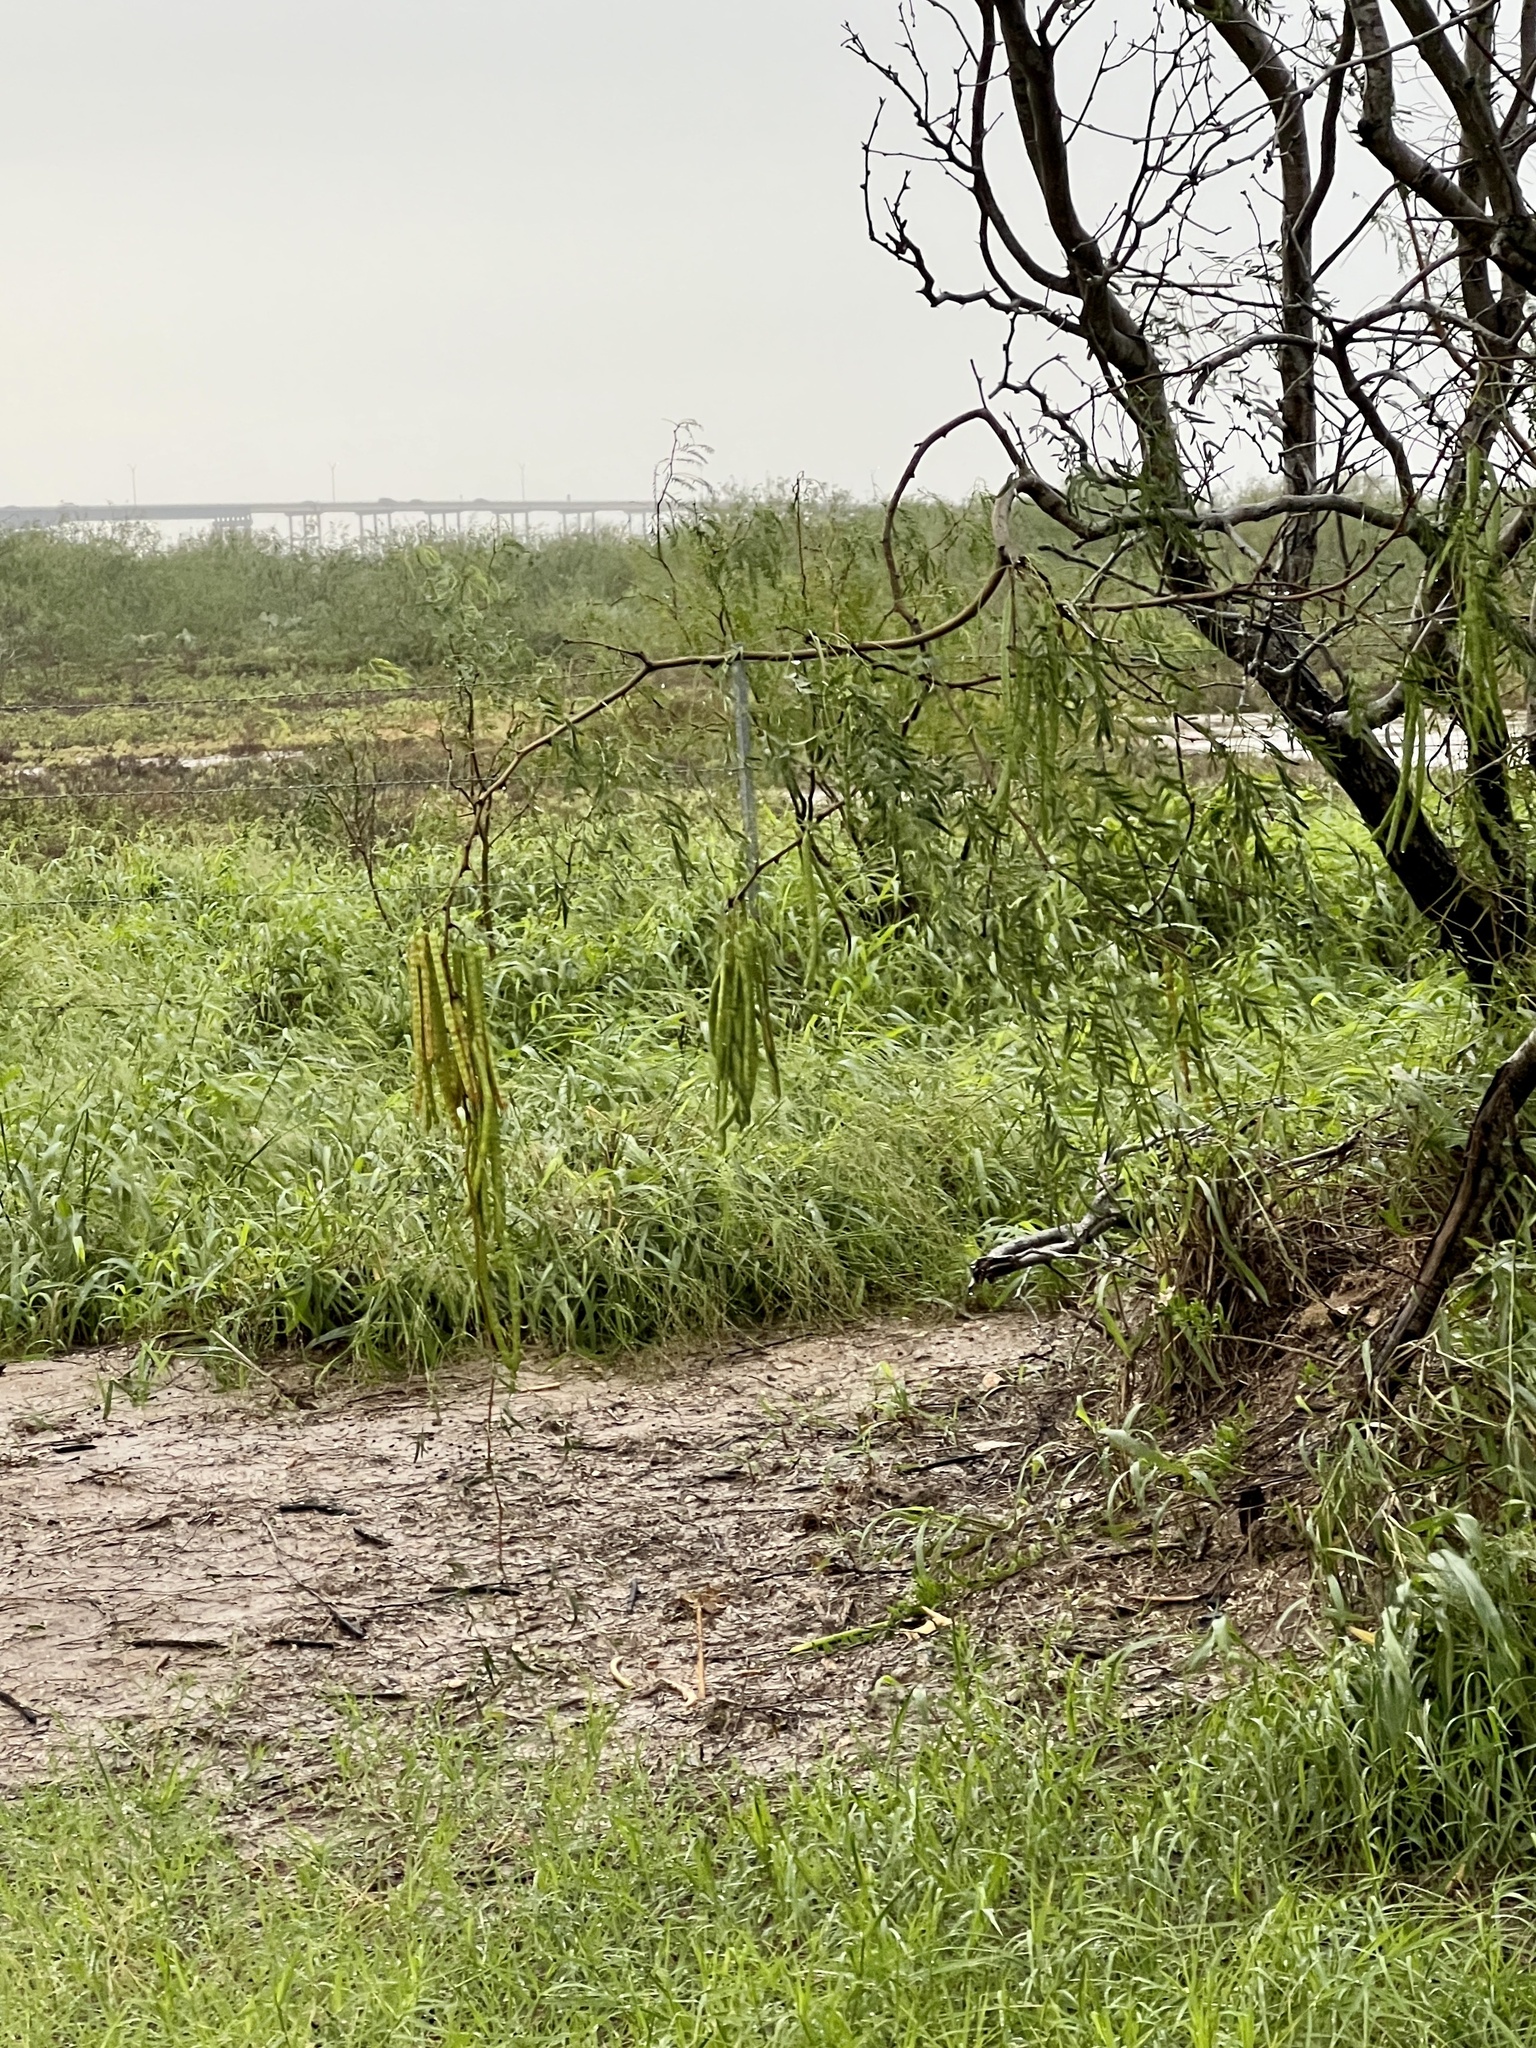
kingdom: Plantae
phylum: Tracheophyta
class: Magnoliopsida
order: Fabales
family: Fabaceae
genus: Prosopis
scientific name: Prosopis glandulosa
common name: Honey mesquite
